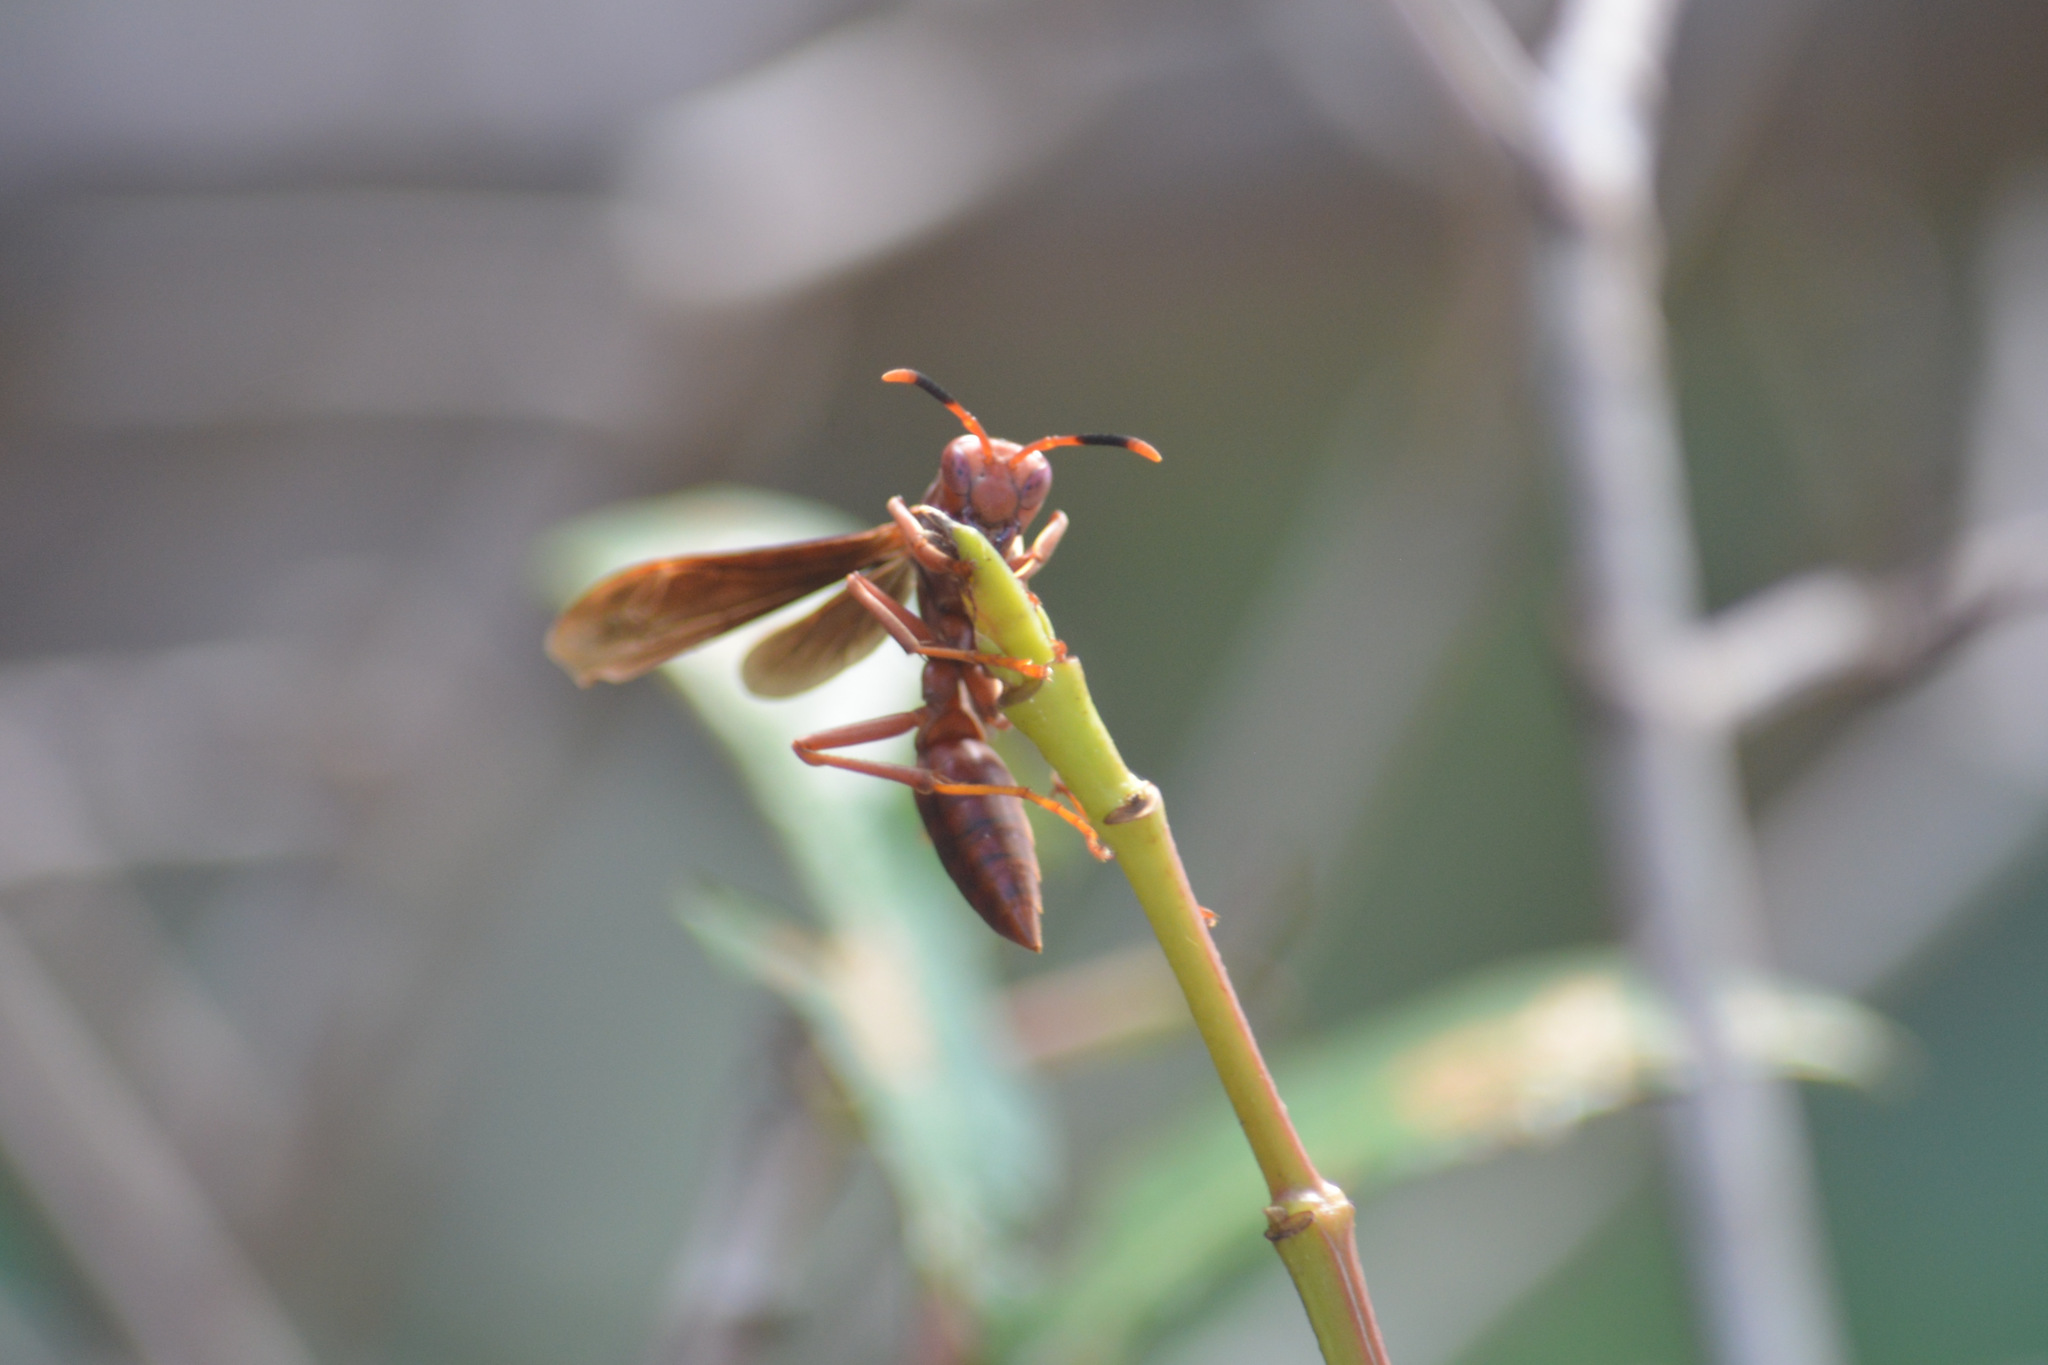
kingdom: Animalia
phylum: Arthropoda
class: Insecta
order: Hymenoptera
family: Eumenidae
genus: Polistes
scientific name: Polistes canadensis
